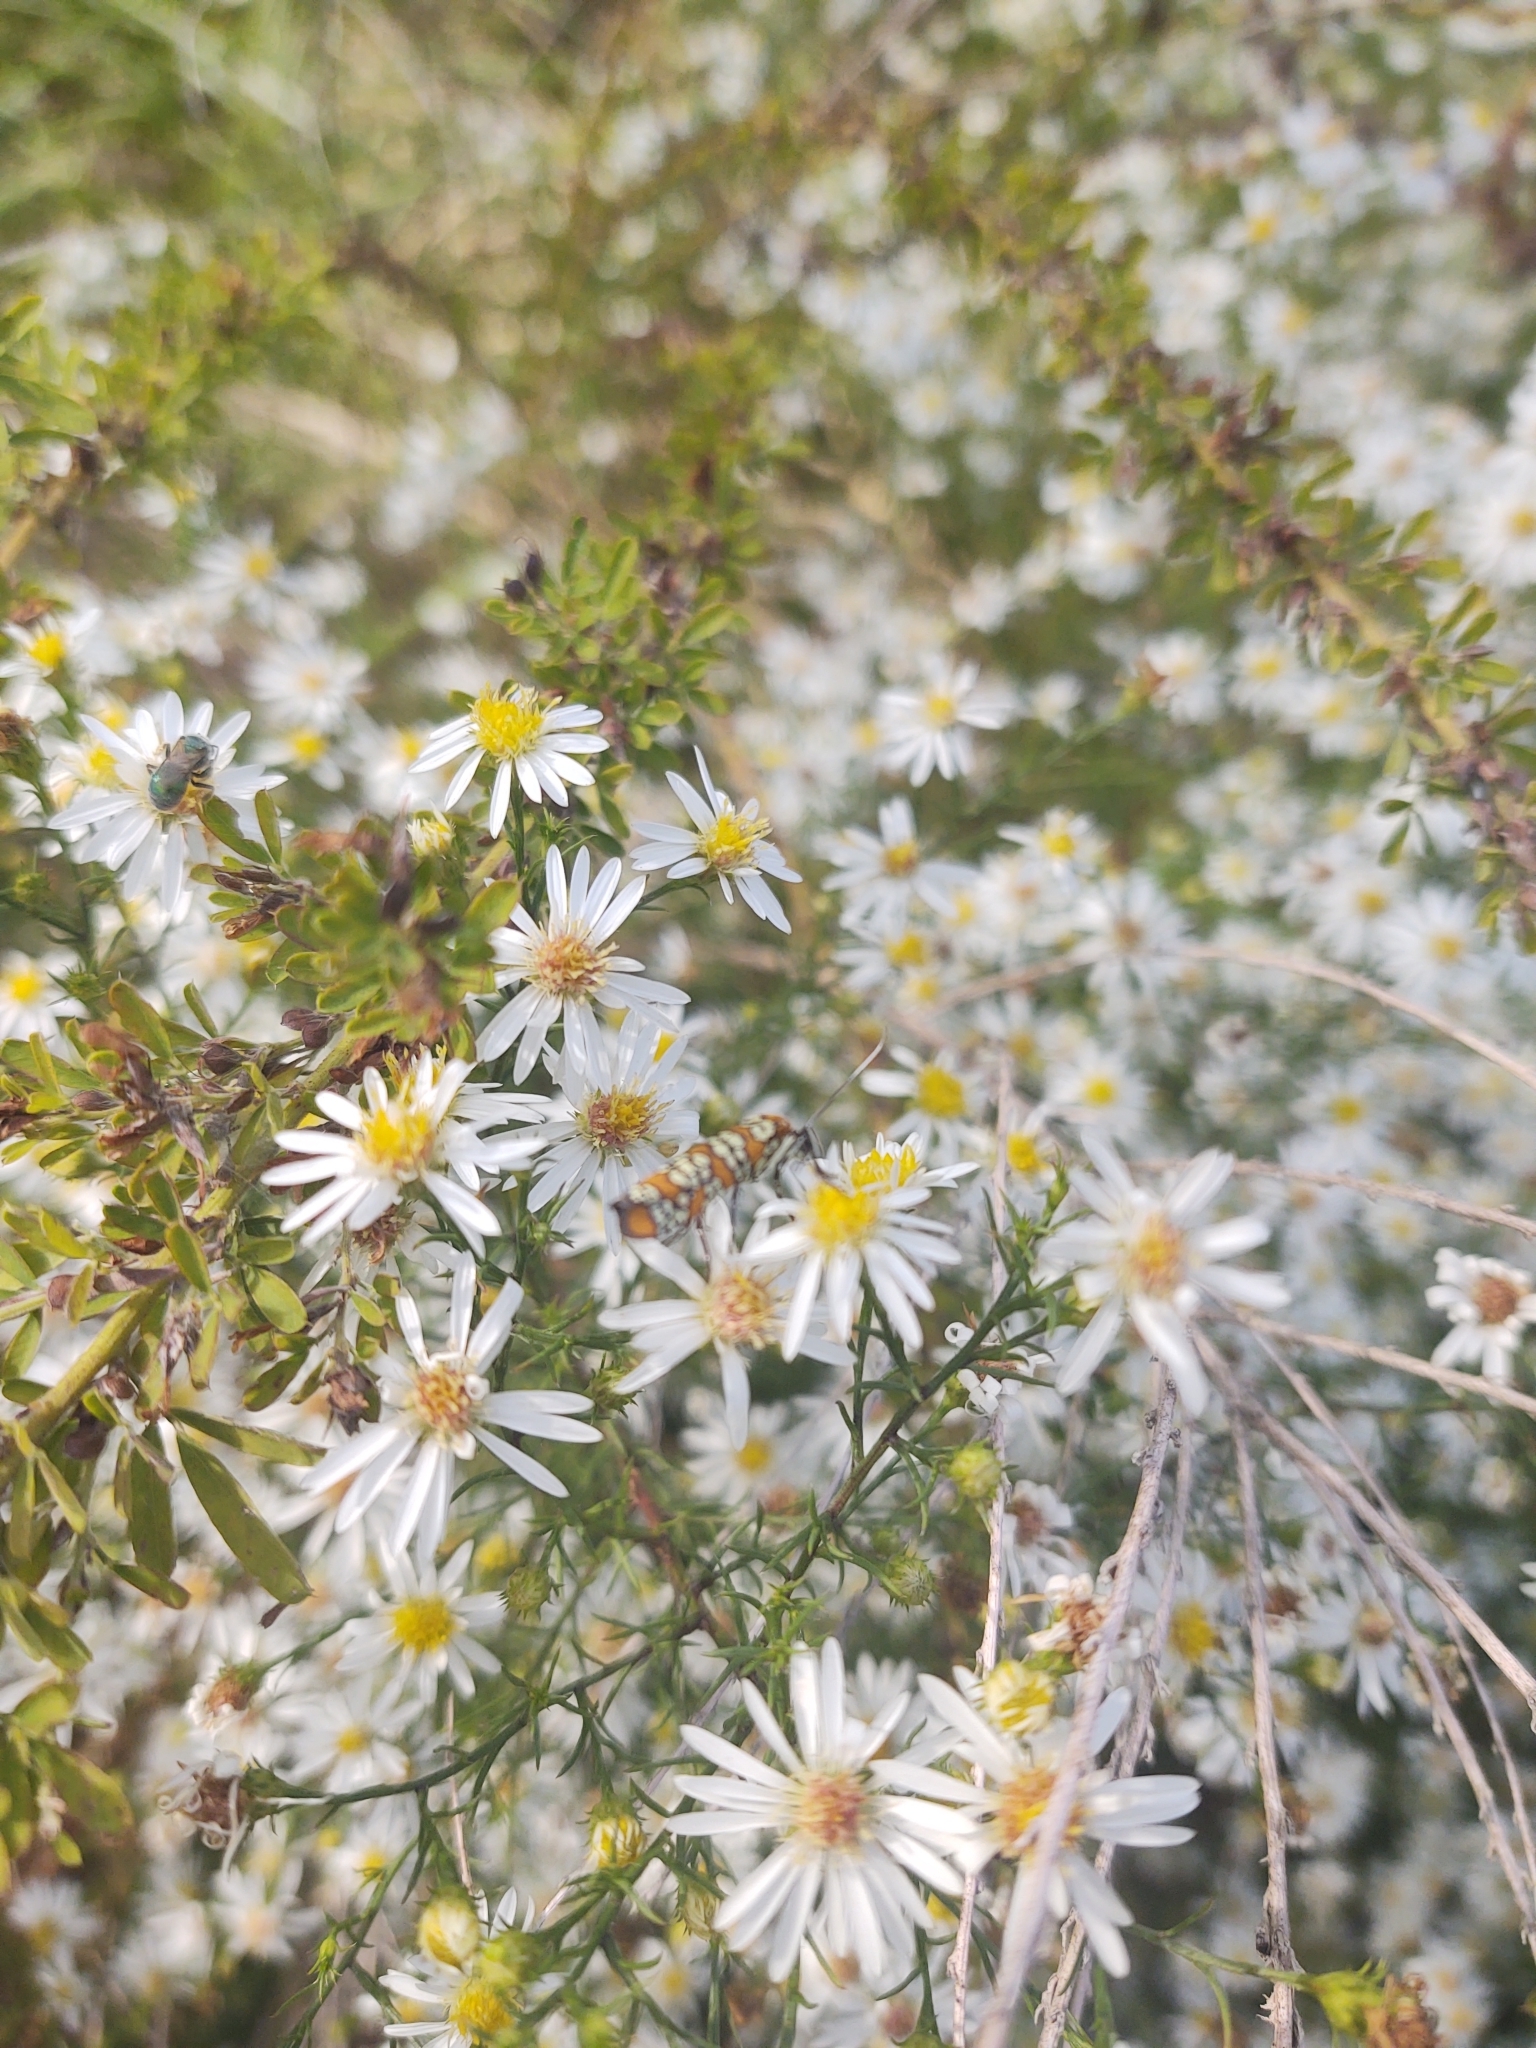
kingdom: Animalia
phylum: Arthropoda
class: Insecta
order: Lepidoptera
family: Attevidae
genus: Atteva
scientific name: Atteva punctella
